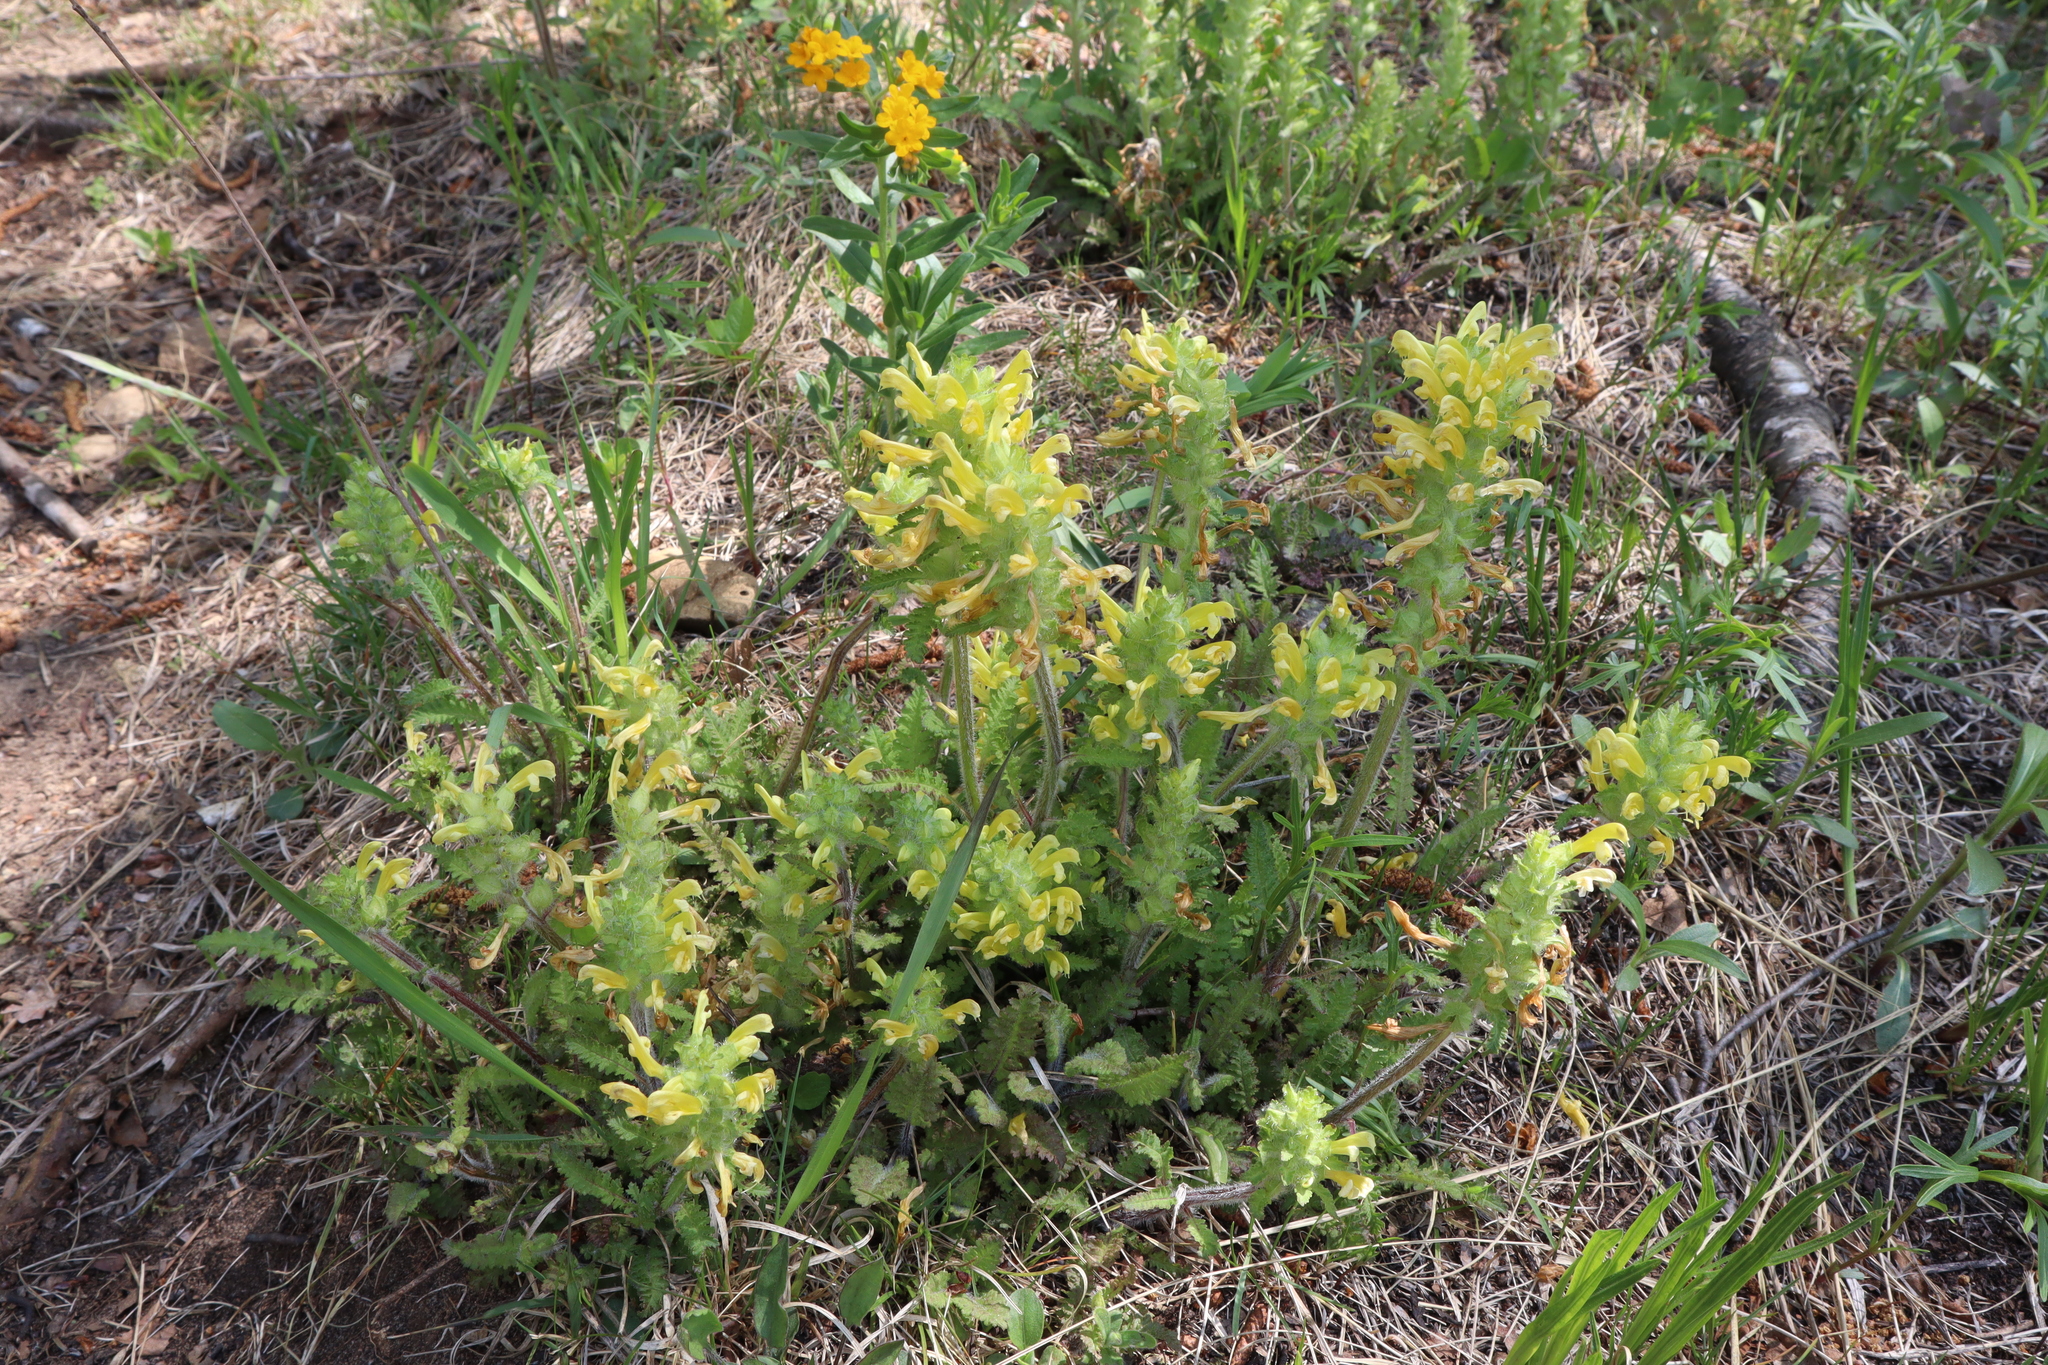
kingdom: Plantae
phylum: Tracheophyta
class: Magnoliopsida
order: Lamiales
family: Orobanchaceae
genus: Pedicularis
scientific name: Pedicularis canadensis
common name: Early lousewort
